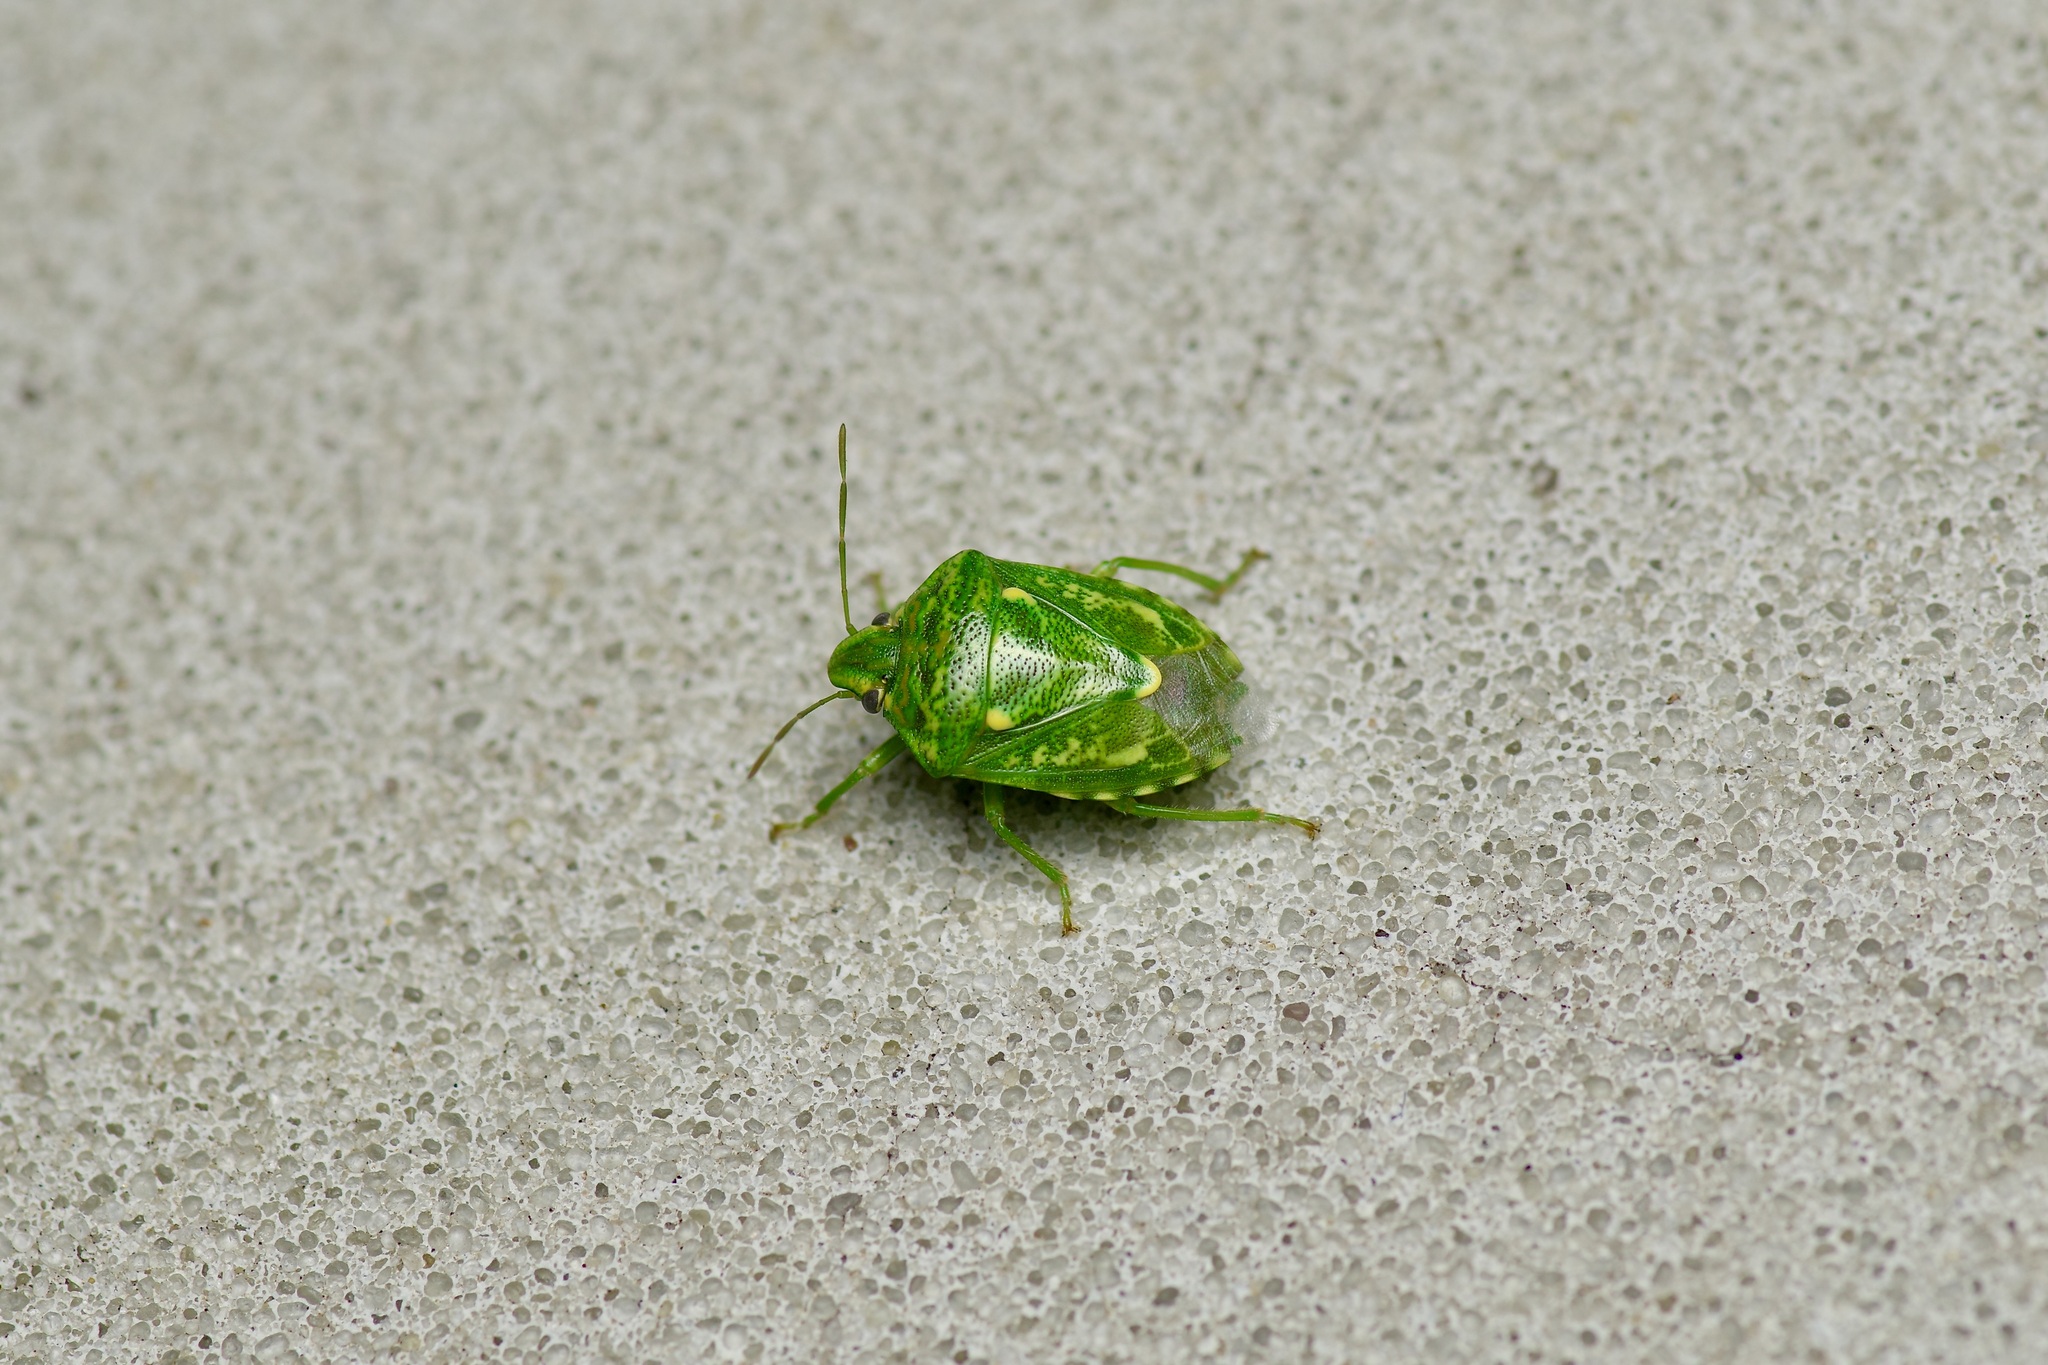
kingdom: Animalia
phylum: Arthropoda
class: Insecta
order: Hemiptera
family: Pentatomidae
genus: Banasa
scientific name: Banasa euchlora
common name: Cedar berry bug
